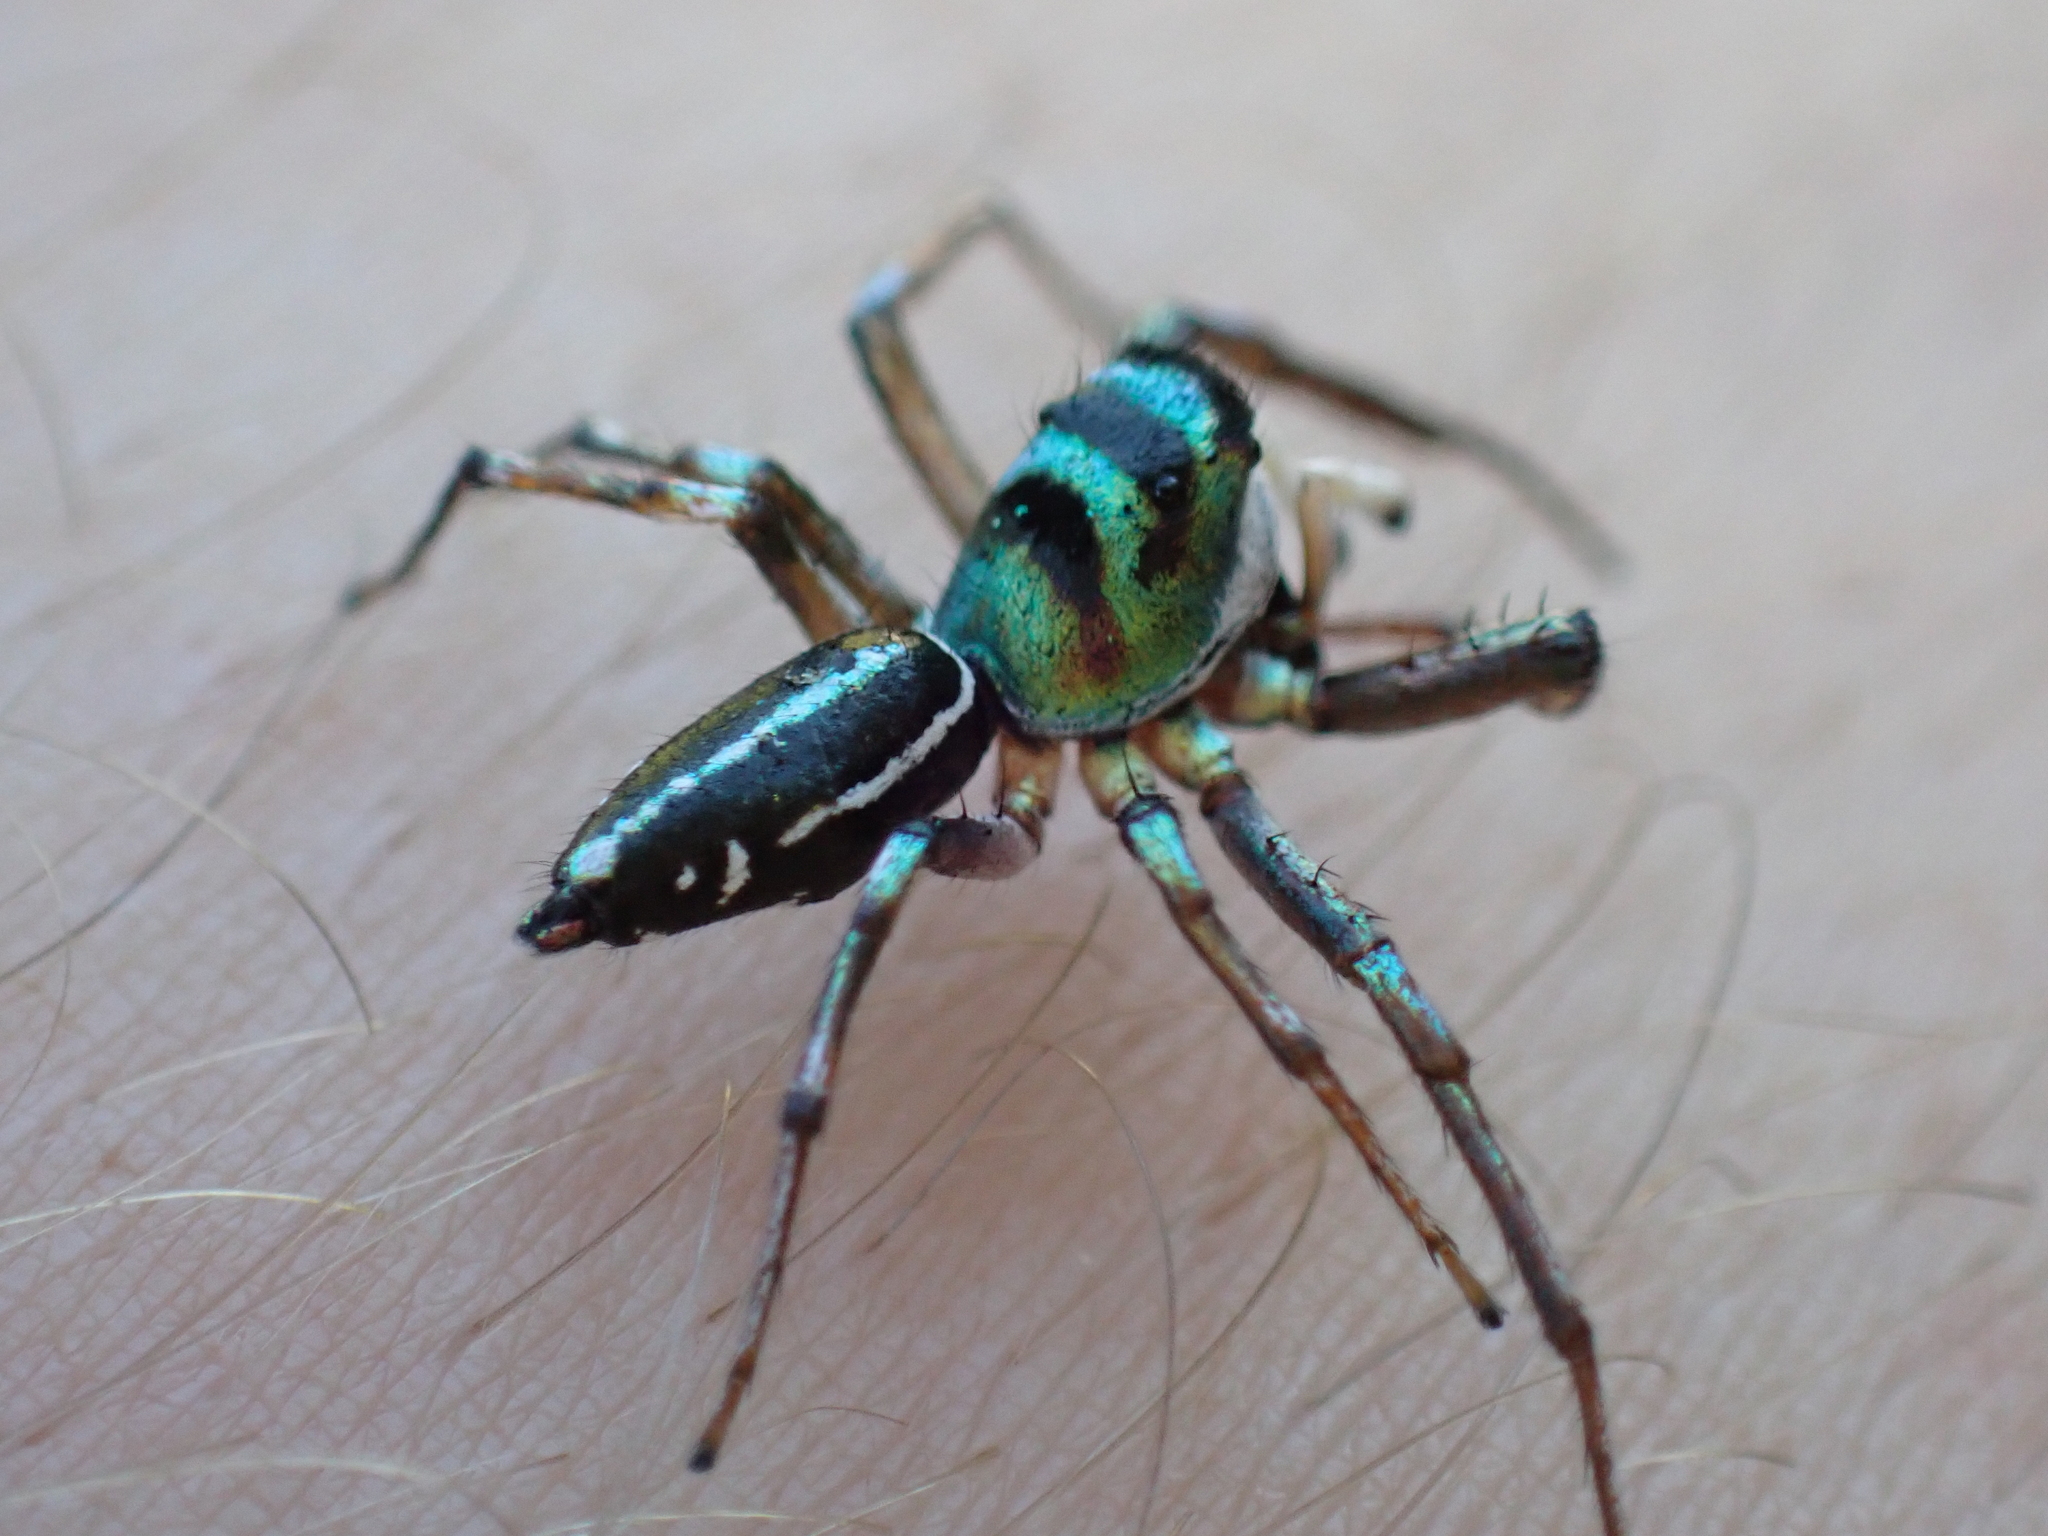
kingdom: Animalia
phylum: Arthropoda
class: Arachnida
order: Araneae
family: Salticidae
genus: Cosmophasis
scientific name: Cosmophasis thalassina
